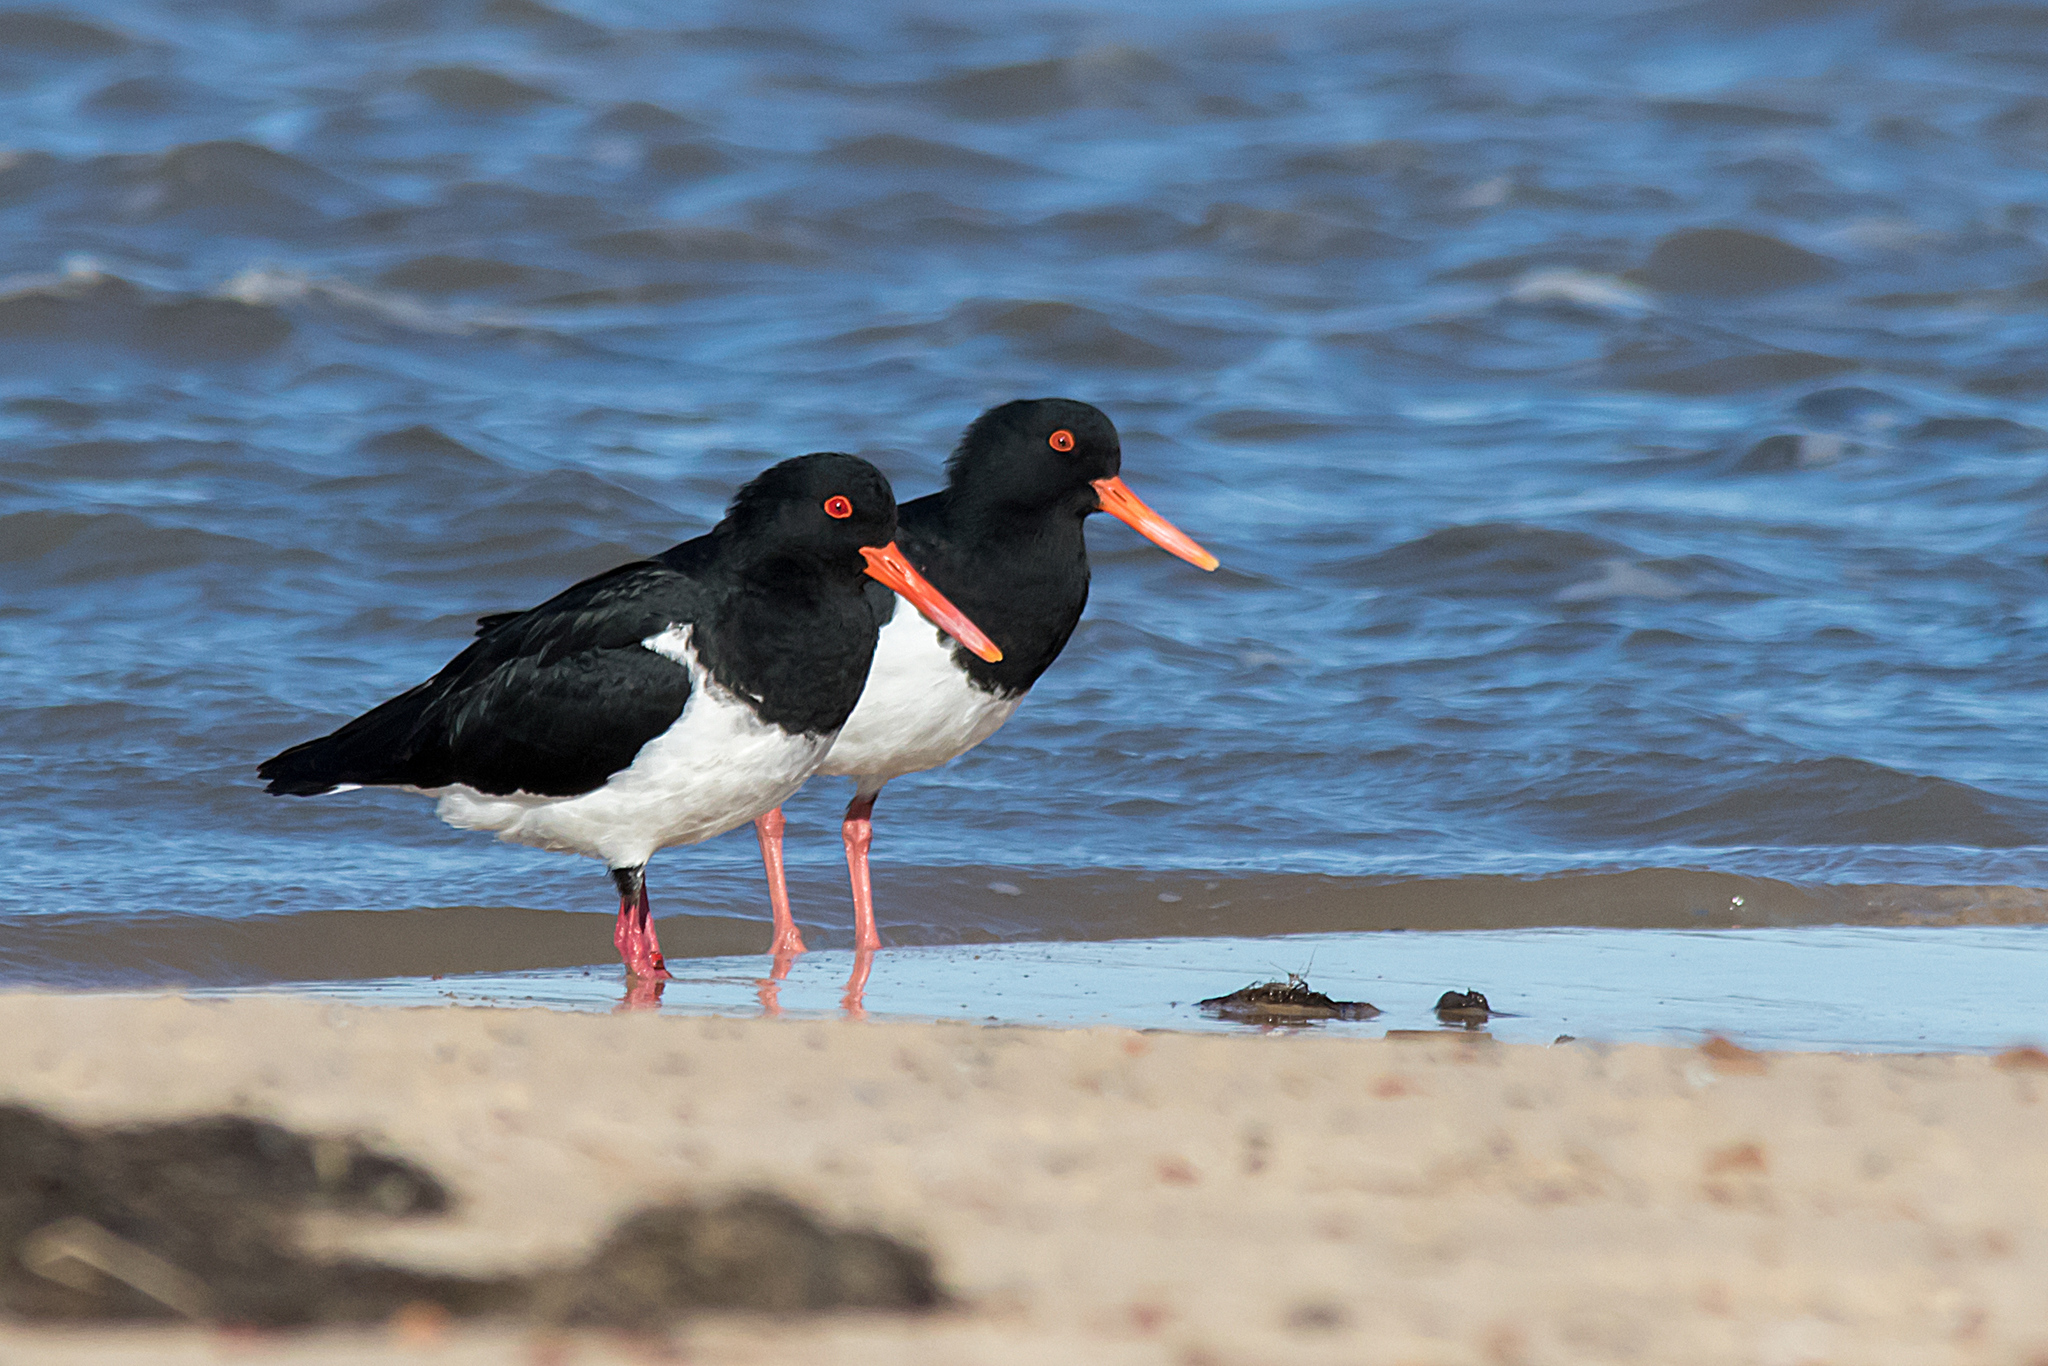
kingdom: Animalia
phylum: Chordata
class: Aves
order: Charadriiformes
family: Haematopodidae
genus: Haematopus
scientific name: Haematopus longirostris
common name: Pied oystercatcher
